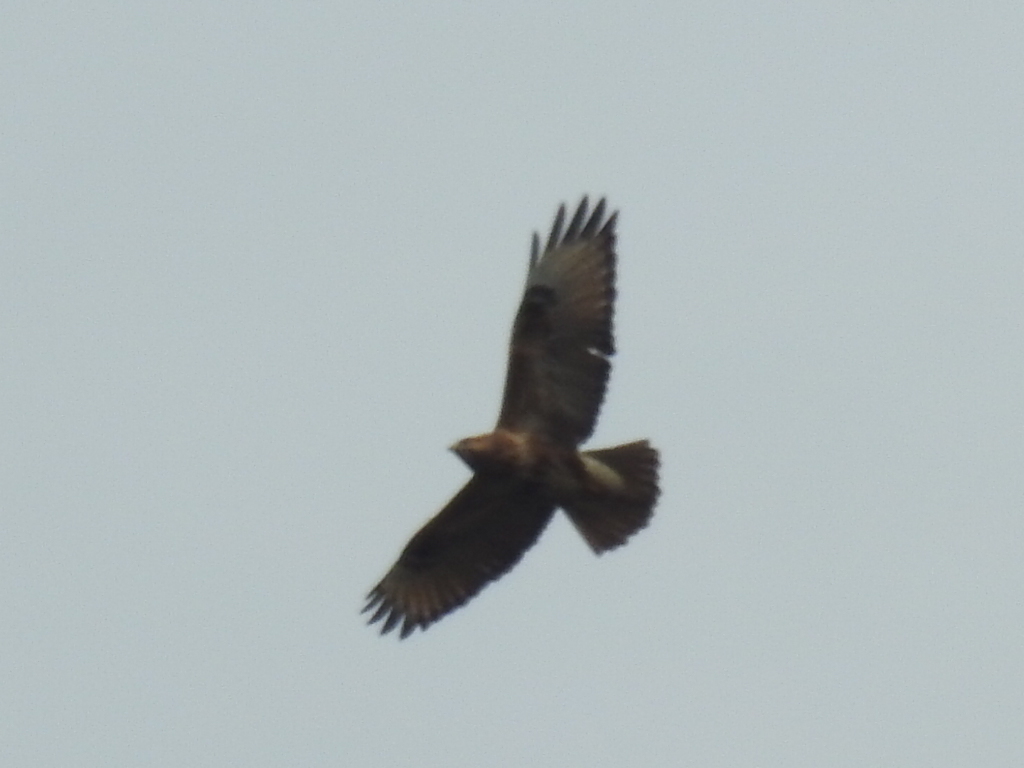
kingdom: Animalia
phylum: Chordata
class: Aves
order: Accipitriformes
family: Accipitridae
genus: Buteo
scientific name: Buteo japonicus
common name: Eastern buzzard
